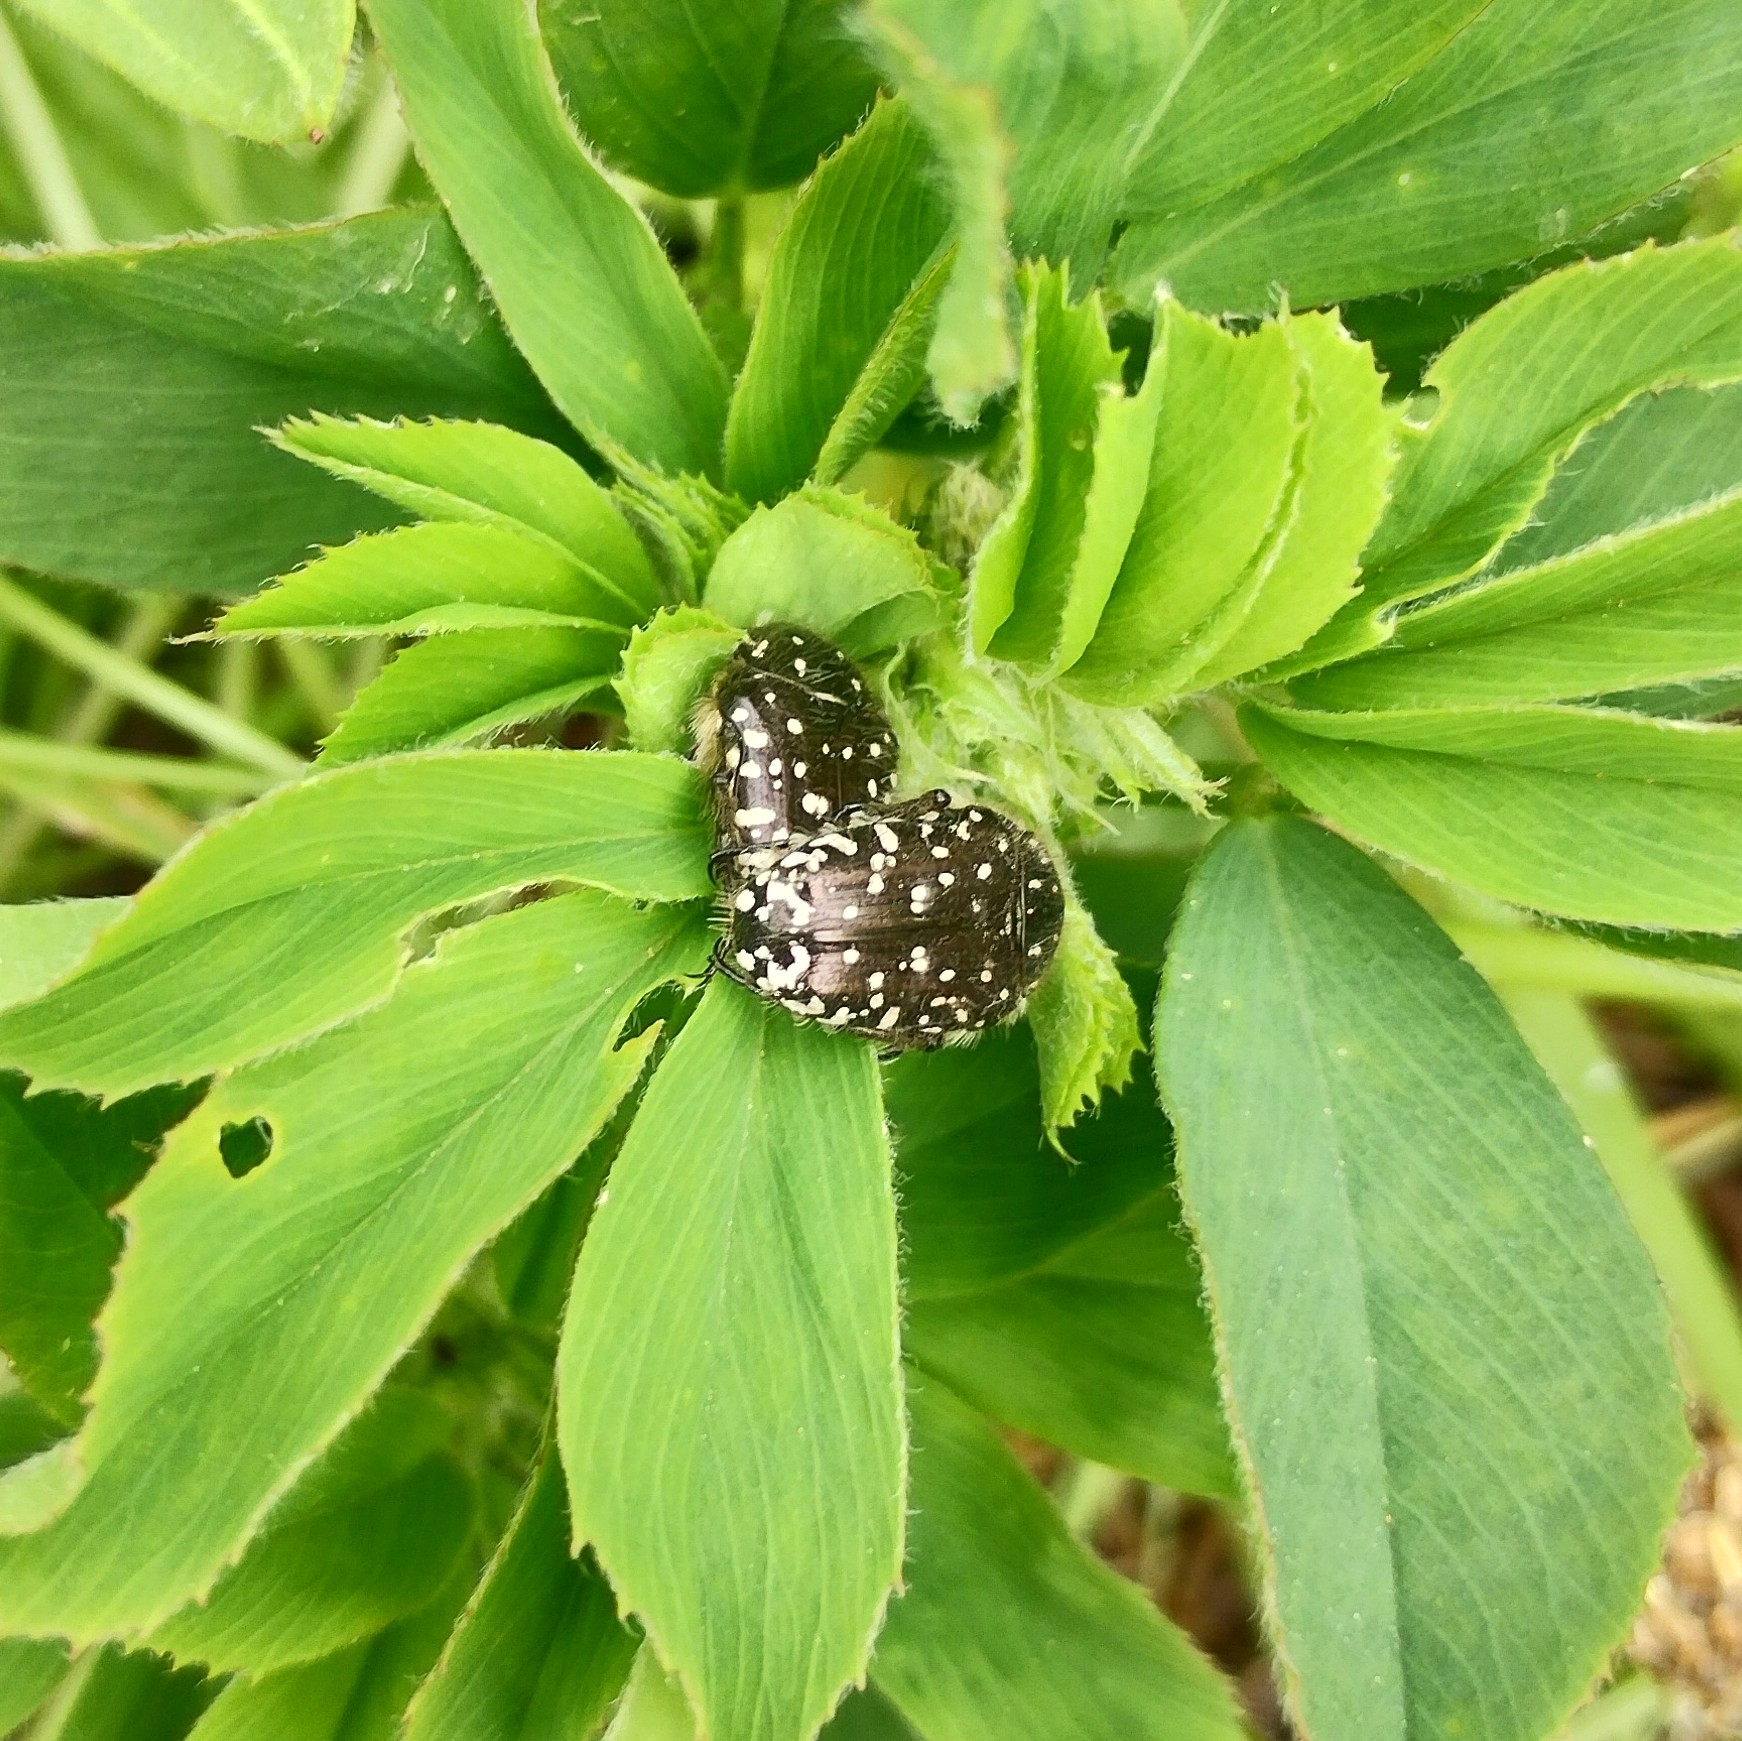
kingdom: Animalia
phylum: Arthropoda
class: Insecta
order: Coleoptera
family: Scarabaeidae
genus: Oxythyrea
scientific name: Oxythyrea funesta
